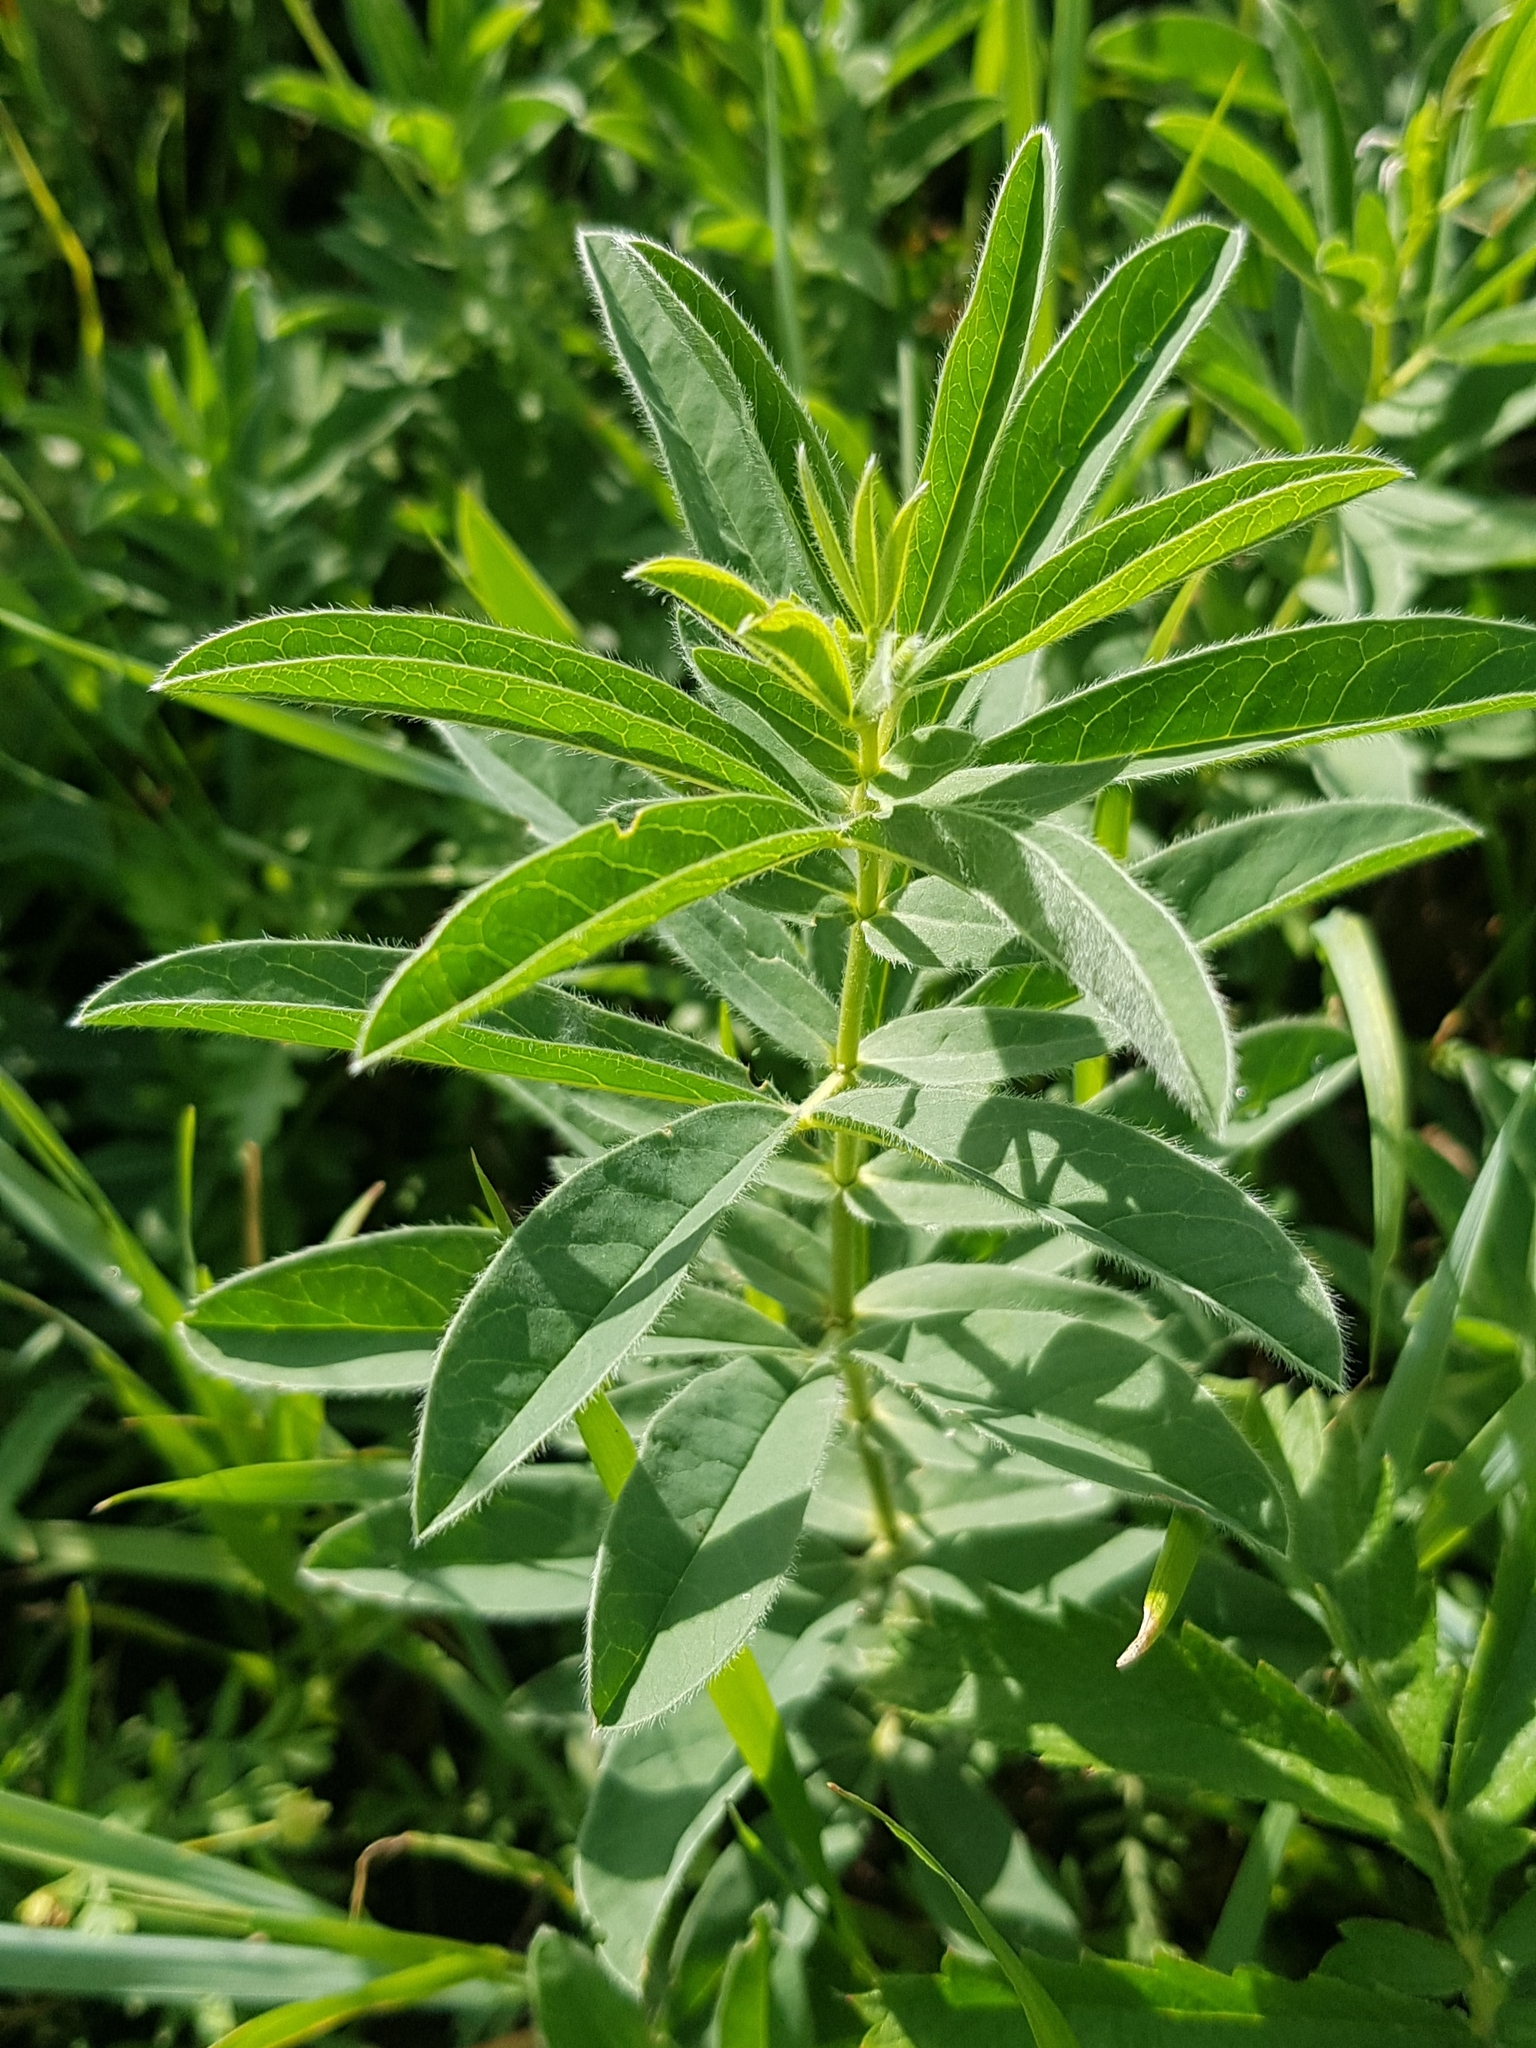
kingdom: Plantae
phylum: Tracheophyta
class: Magnoliopsida
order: Fabales
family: Fabaceae
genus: Thermopsis
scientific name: Thermopsis lanceolata
